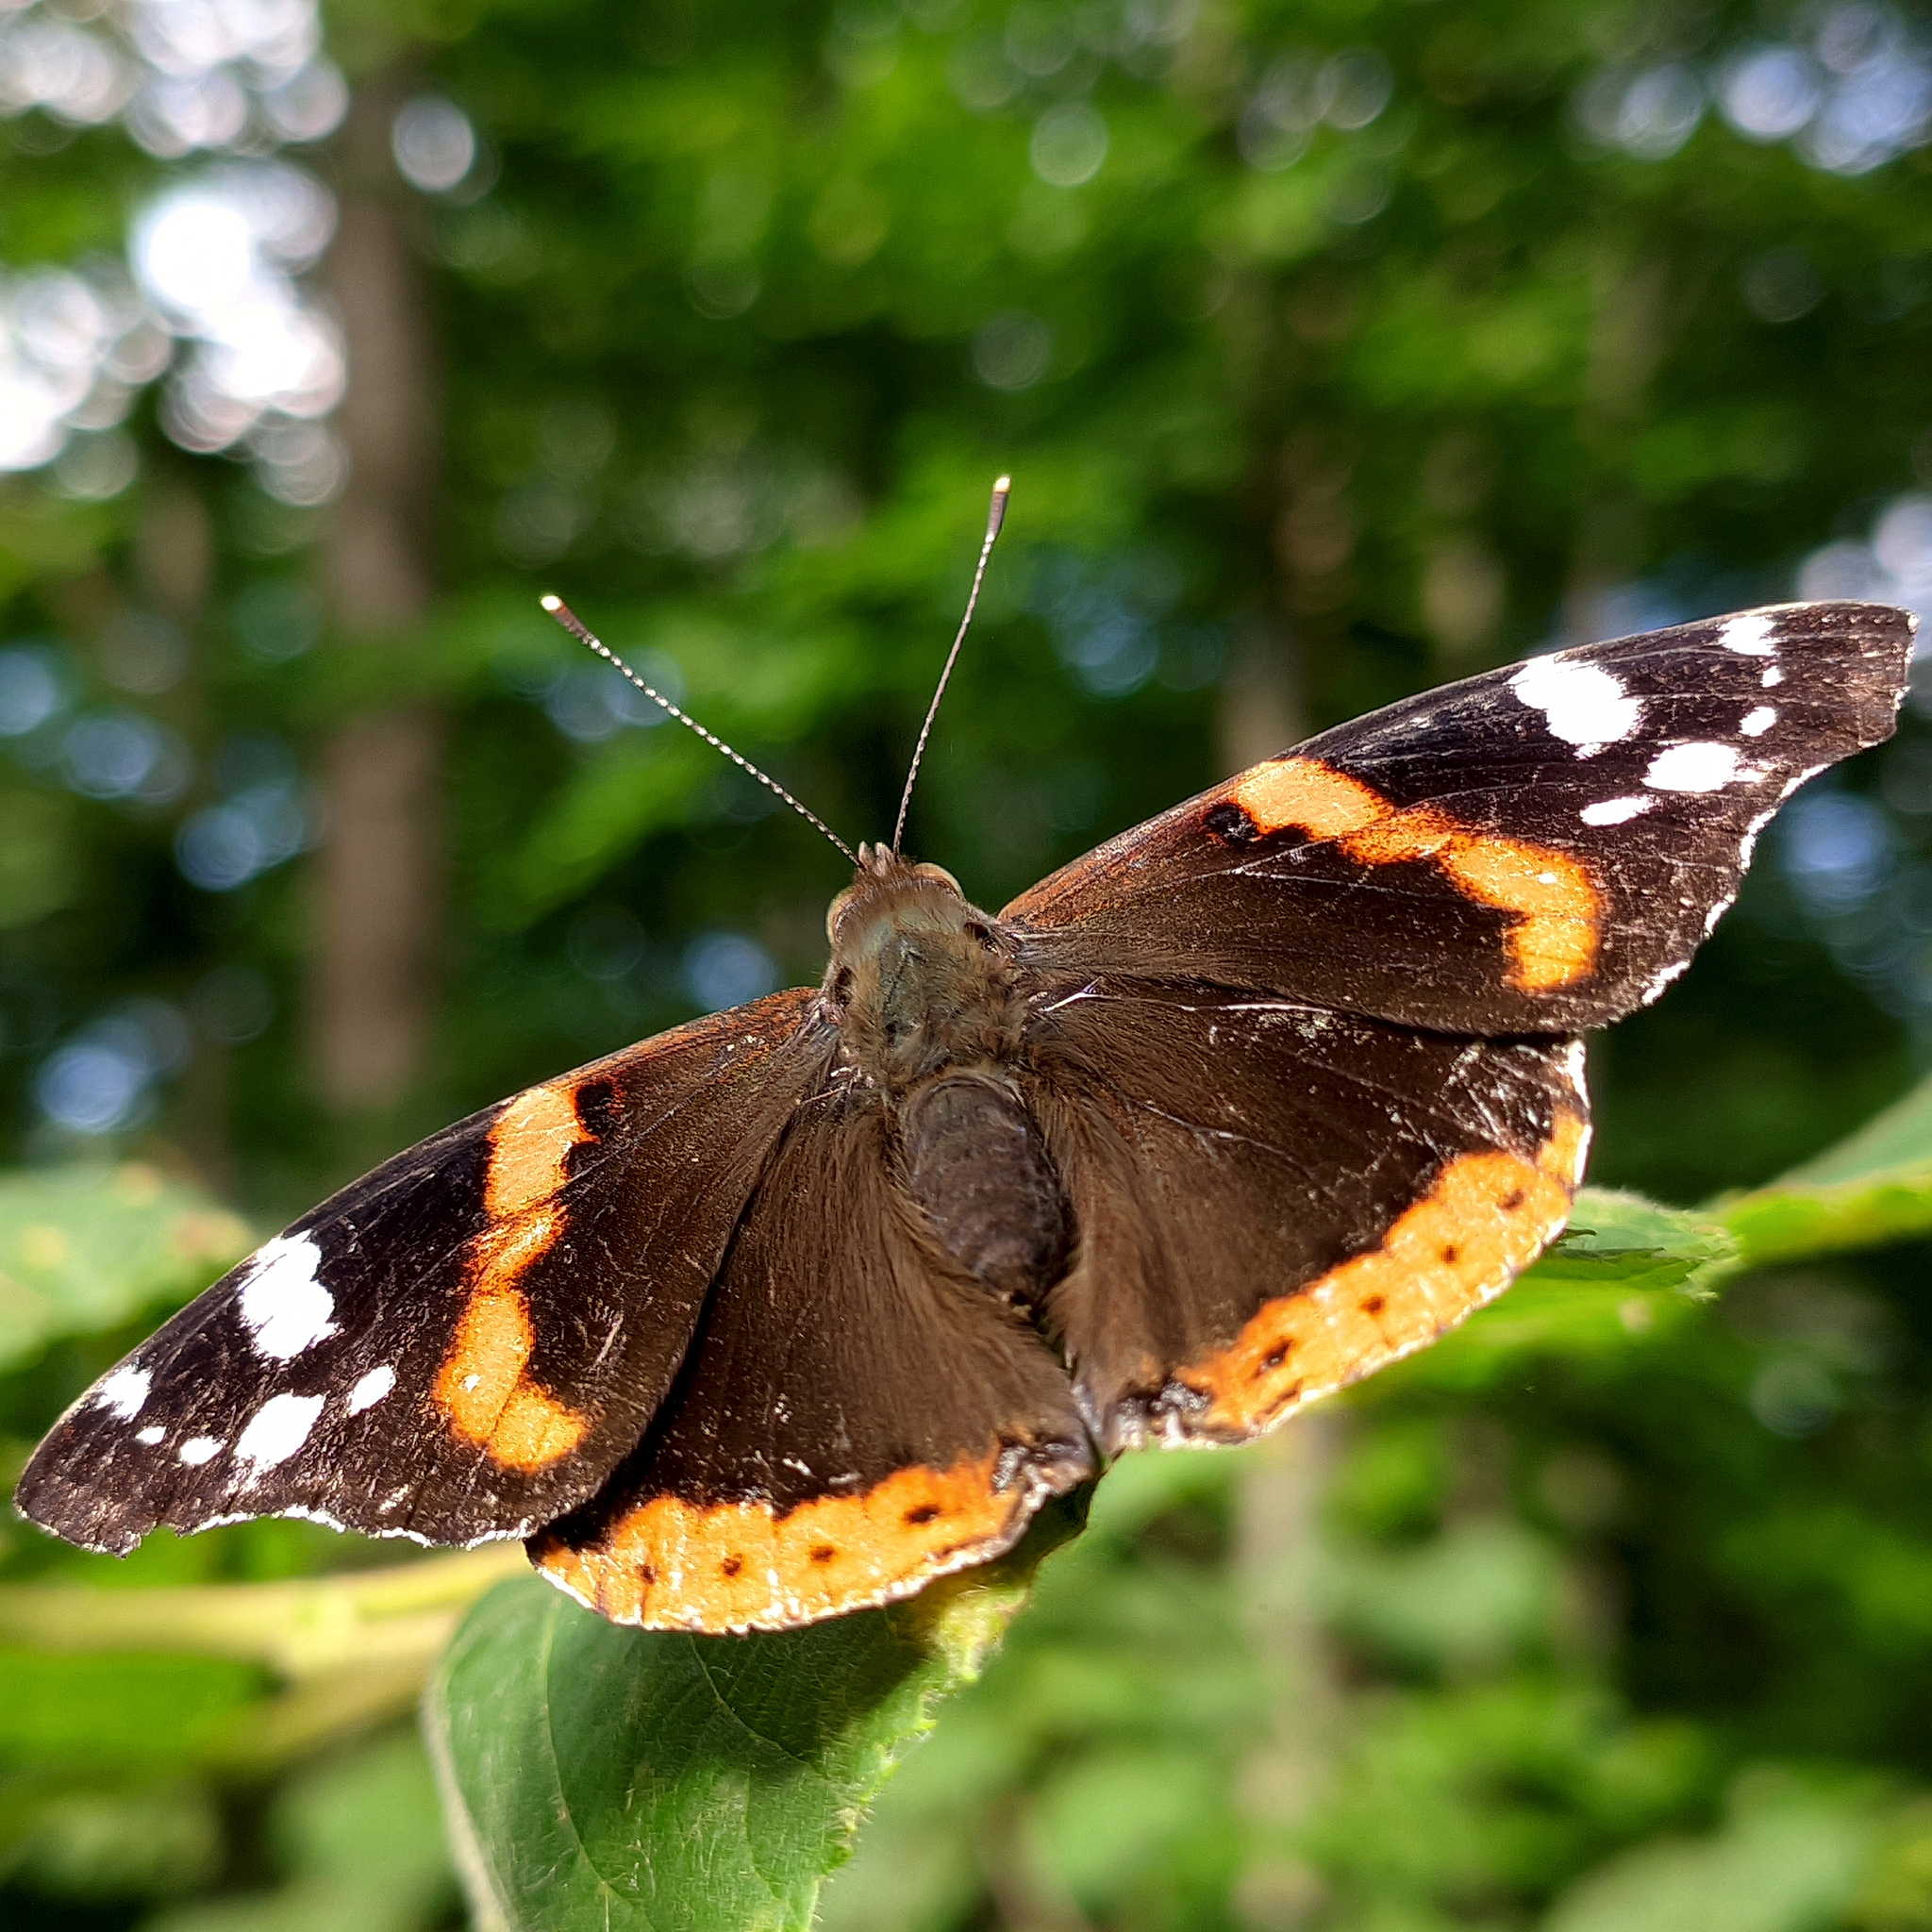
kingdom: Animalia
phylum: Arthropoda
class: Insecta
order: Lepidoptera
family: Nymphalidae
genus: Vanessa
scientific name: Vanessa atalanta
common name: Red admiral
